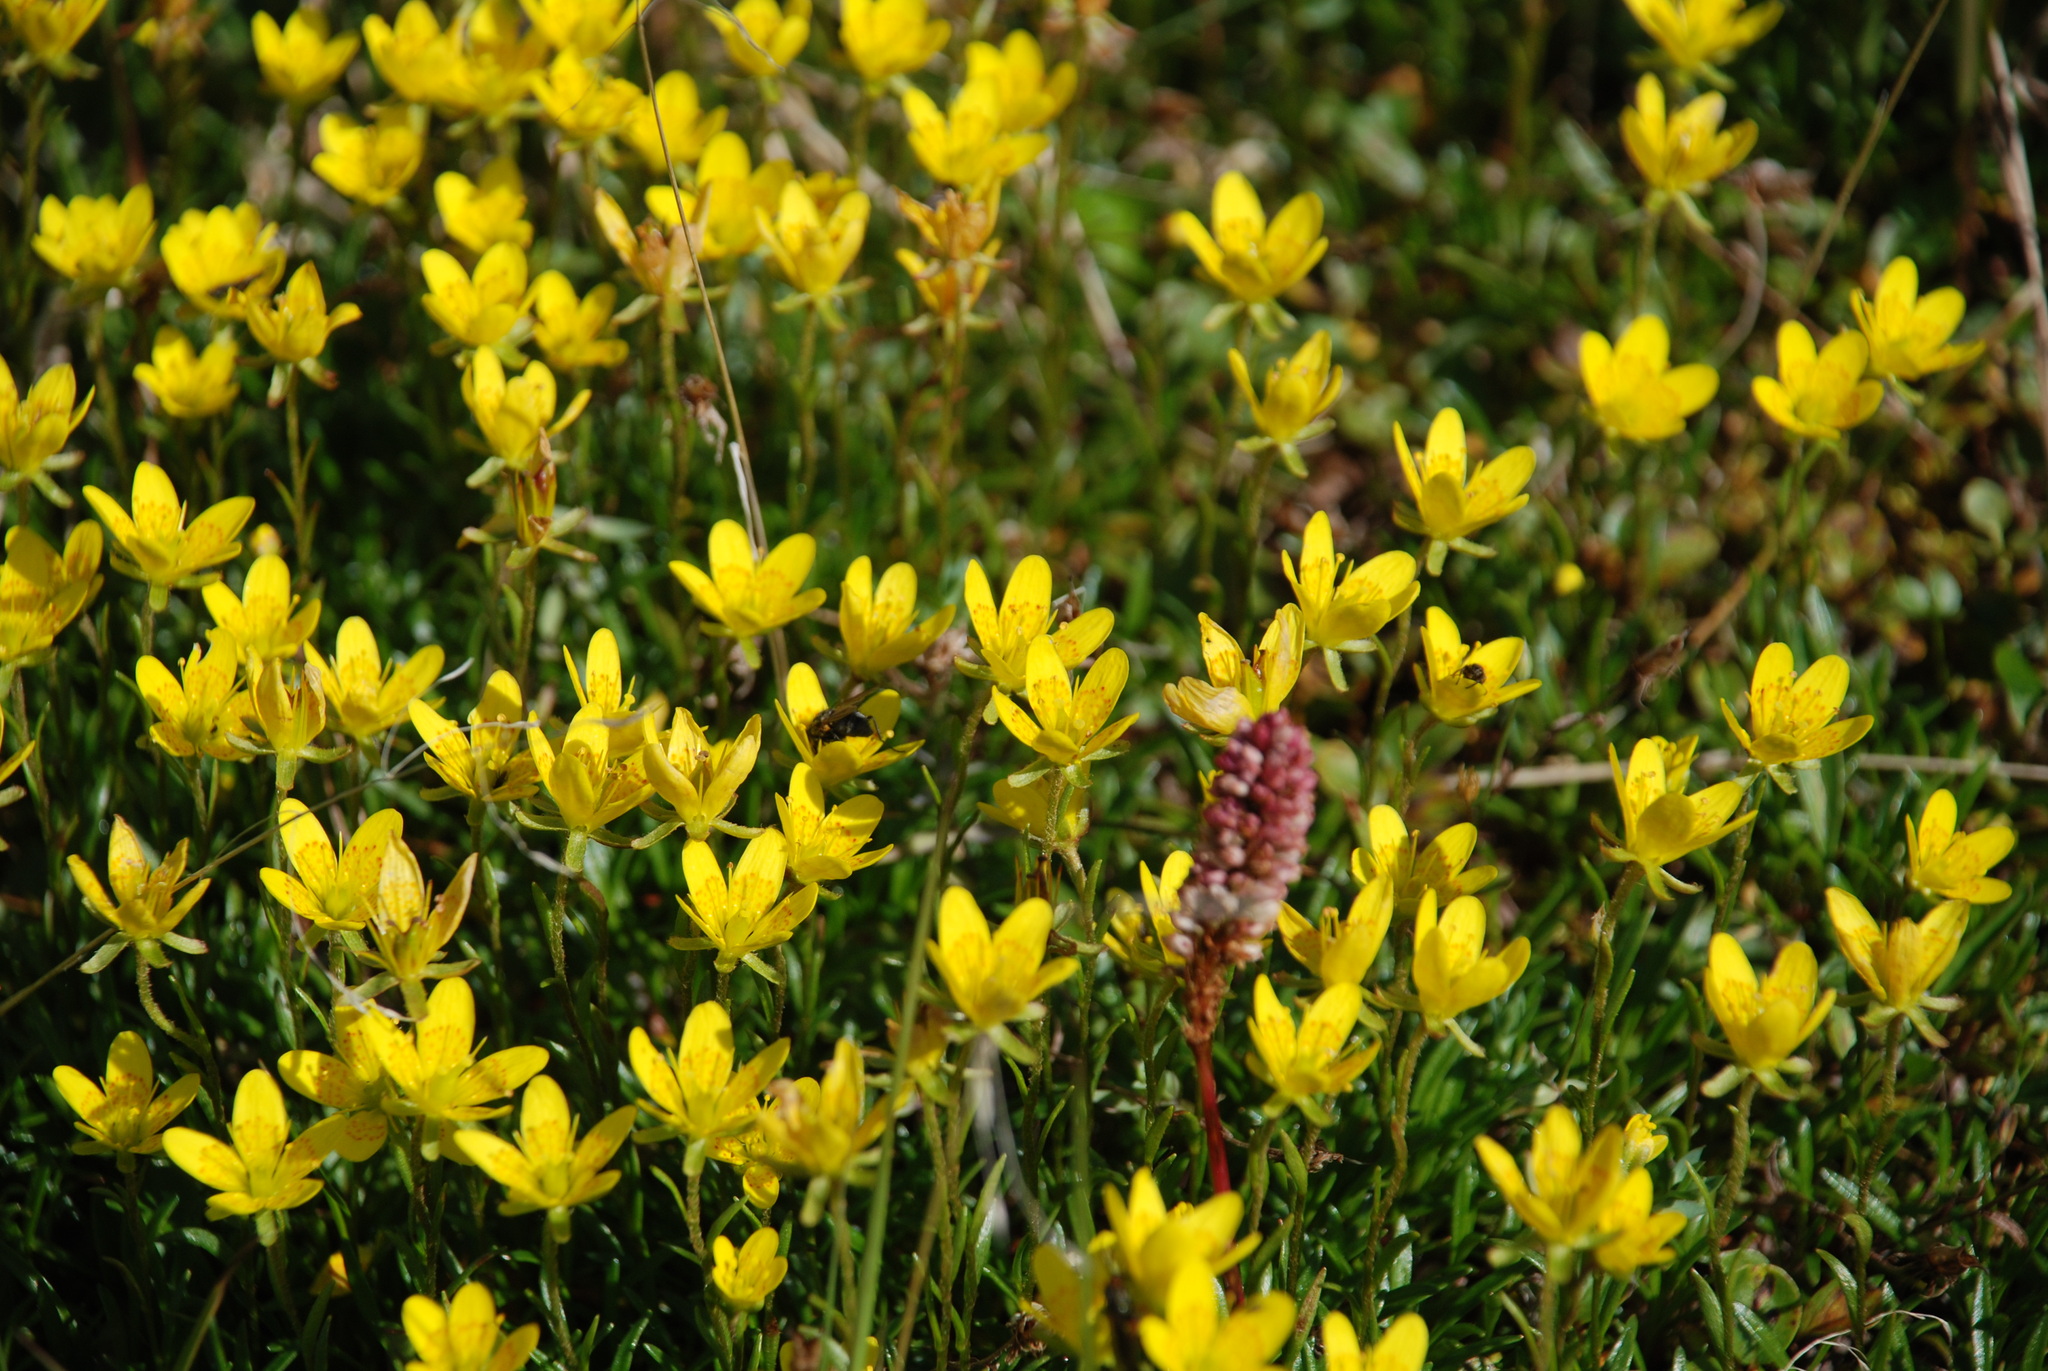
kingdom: Plantae
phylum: Tracheophyta
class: Magnoliopsida
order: Saxifragales
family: Saxifragaceae
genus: Saxifraga
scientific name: Saxifraga hirculus
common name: Yellow marsh saxifrage
